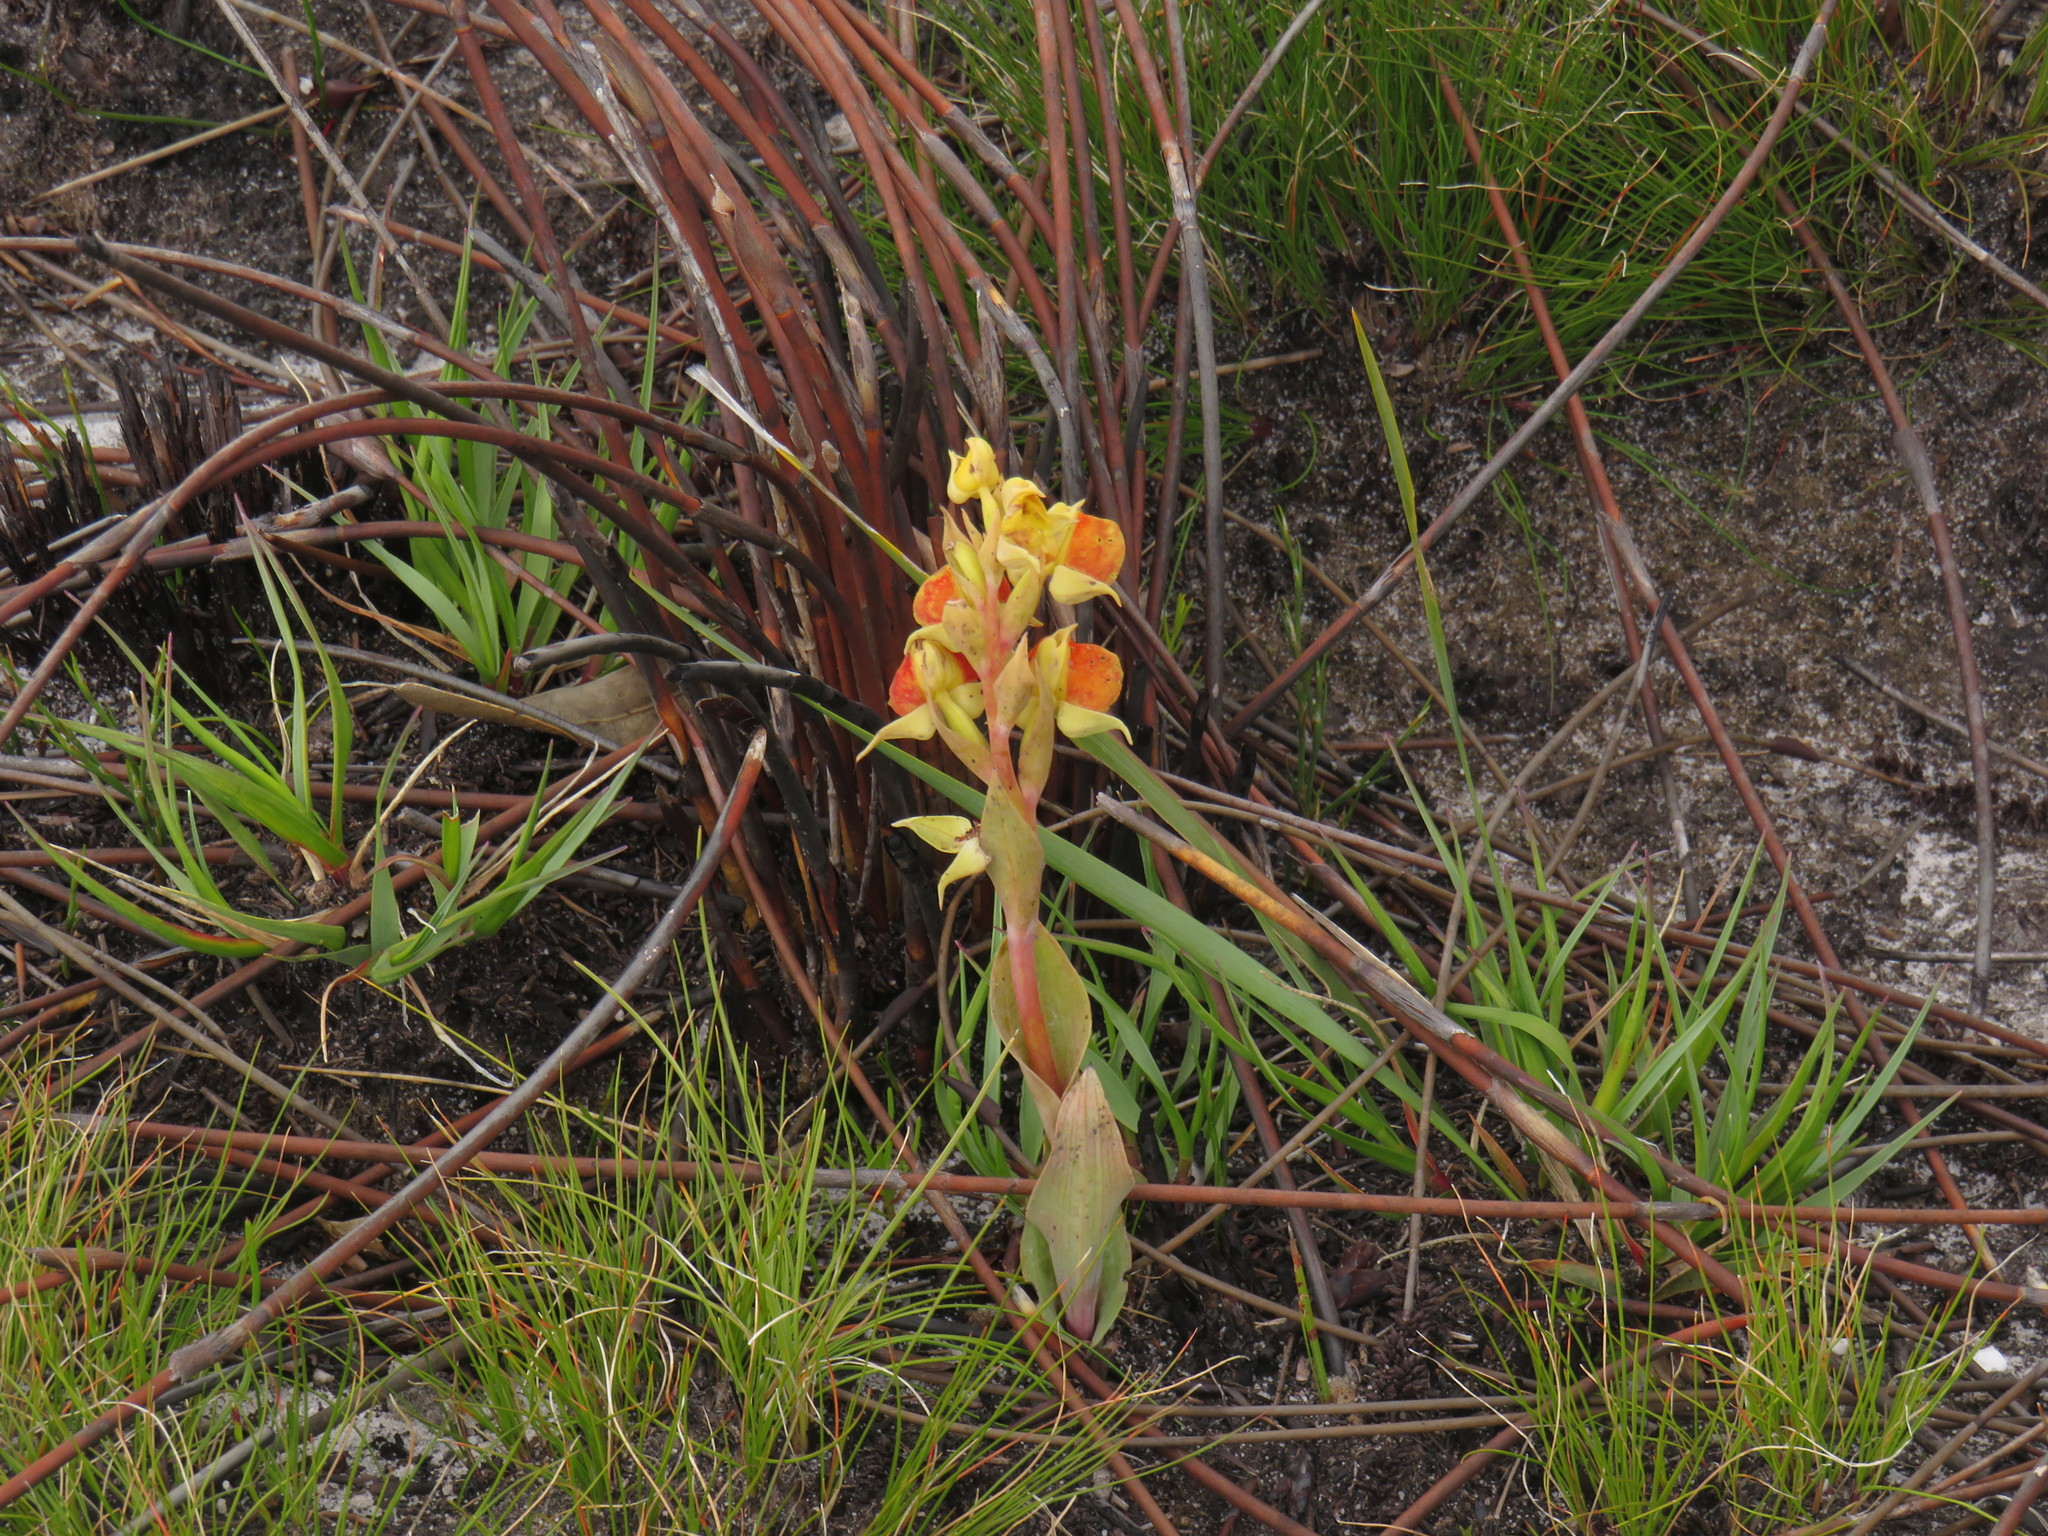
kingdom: Plantae
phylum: Tracheophyta
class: Liliopsida
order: Asparagales
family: Orchidaceae
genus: Pterygodium
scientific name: Pterygodium acutifolium
